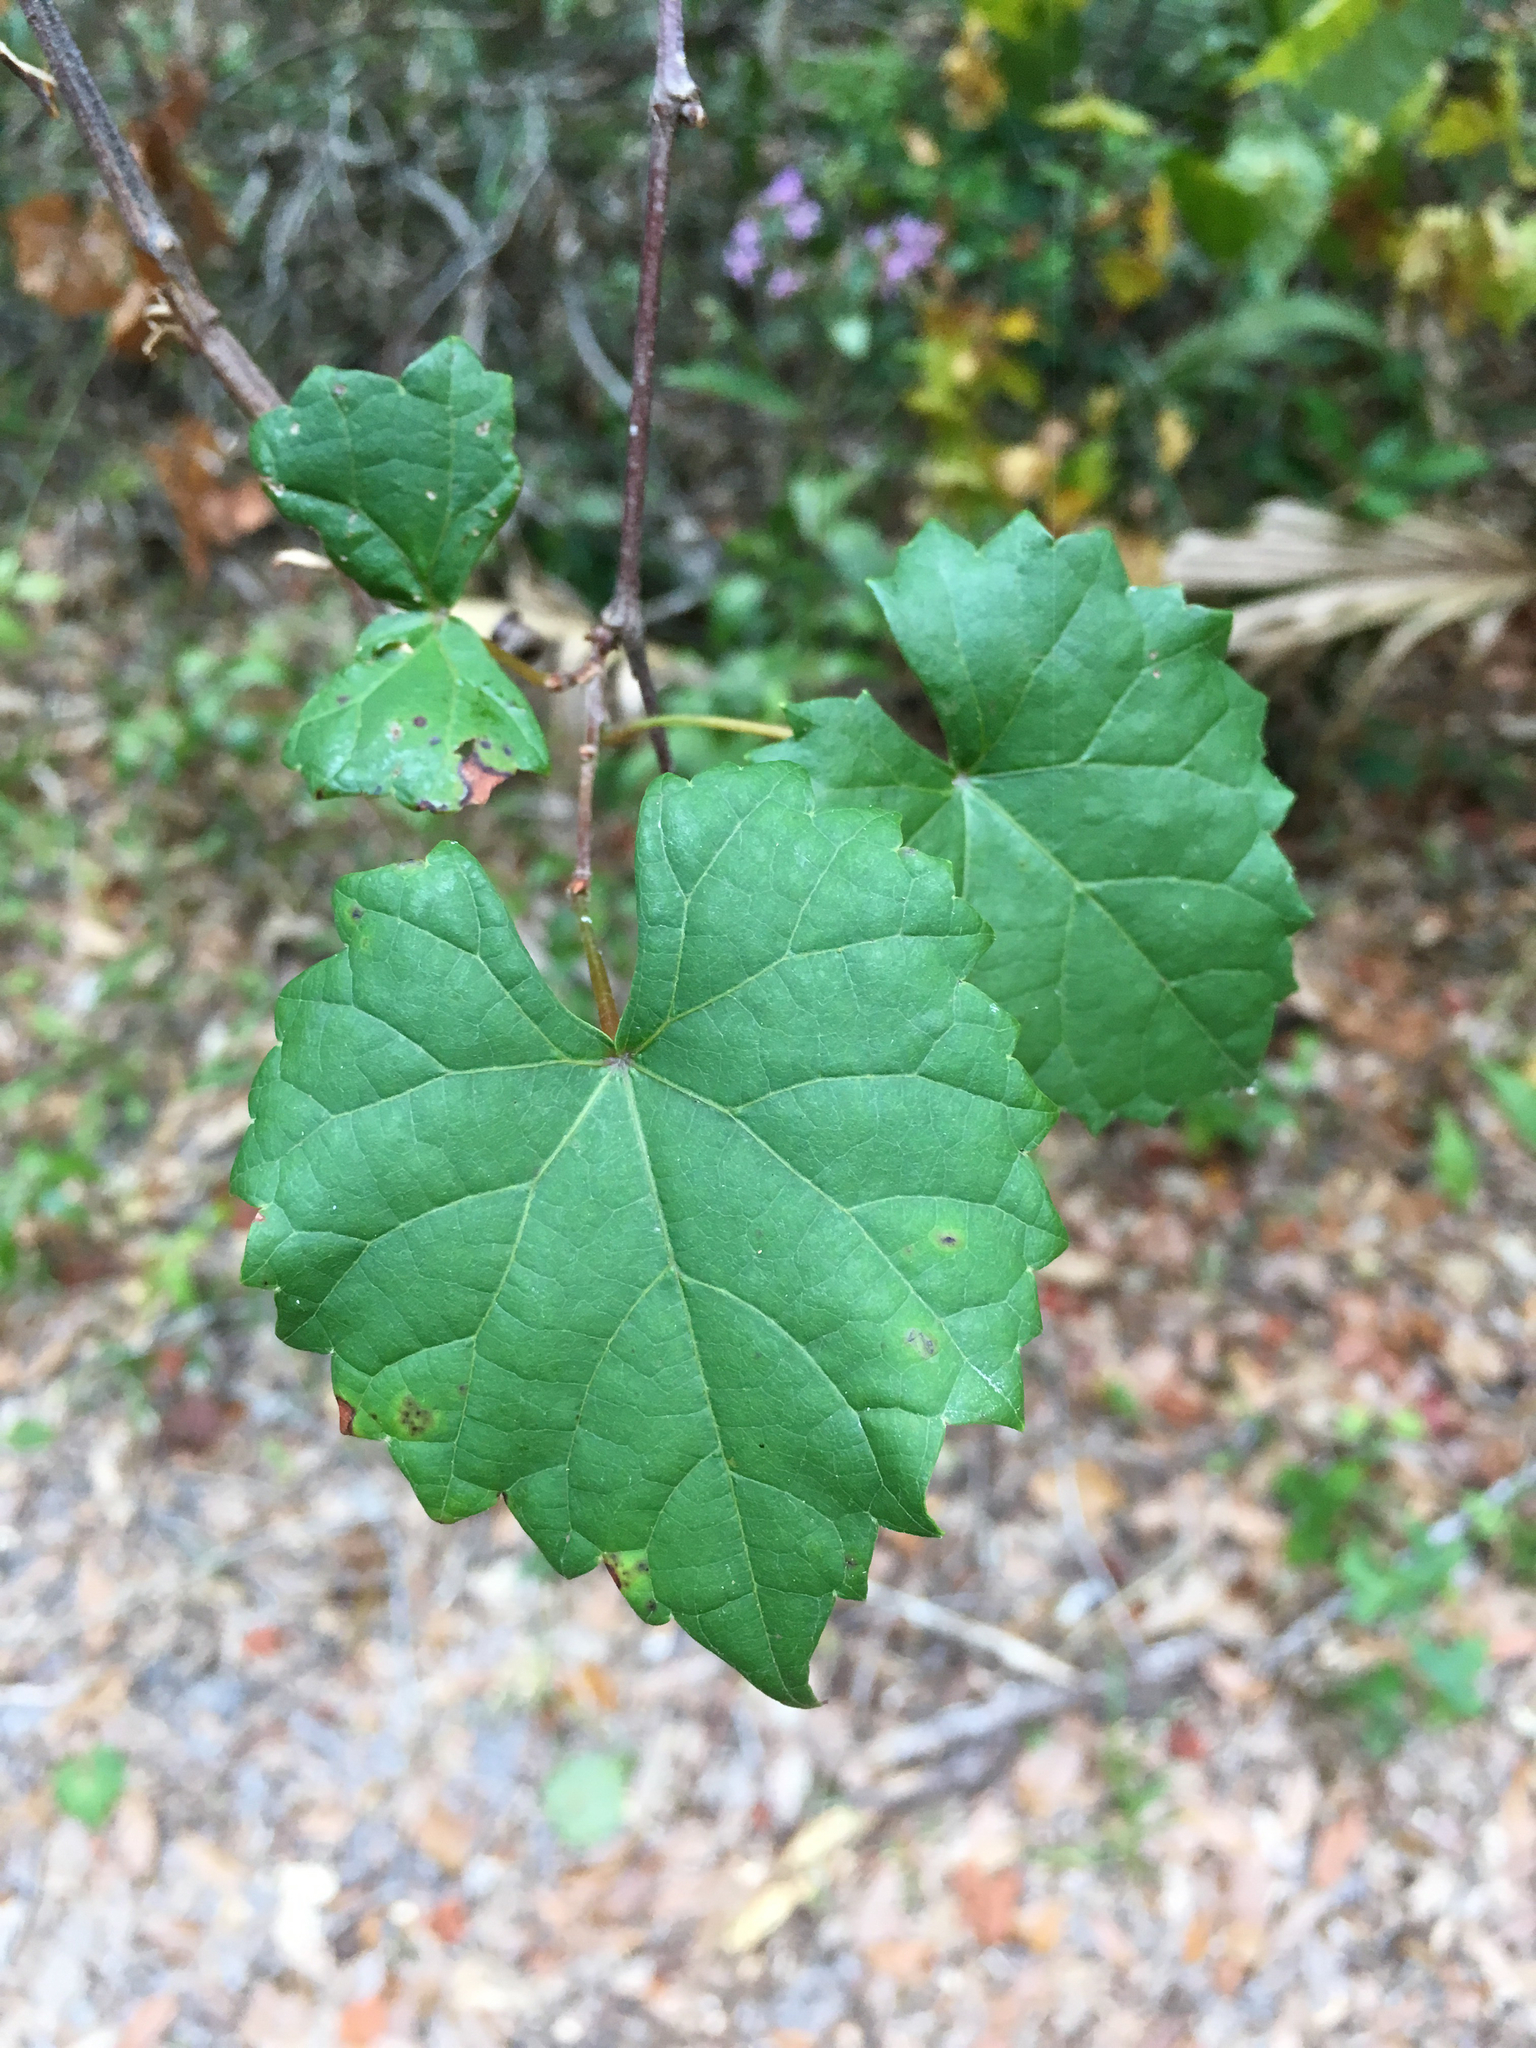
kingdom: Plantae
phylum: Tracheophyta
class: Magnoliopsida
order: Vitales
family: Vitaceae
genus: Vitis
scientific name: Vitis rotundifolia
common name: Muscadine grape
